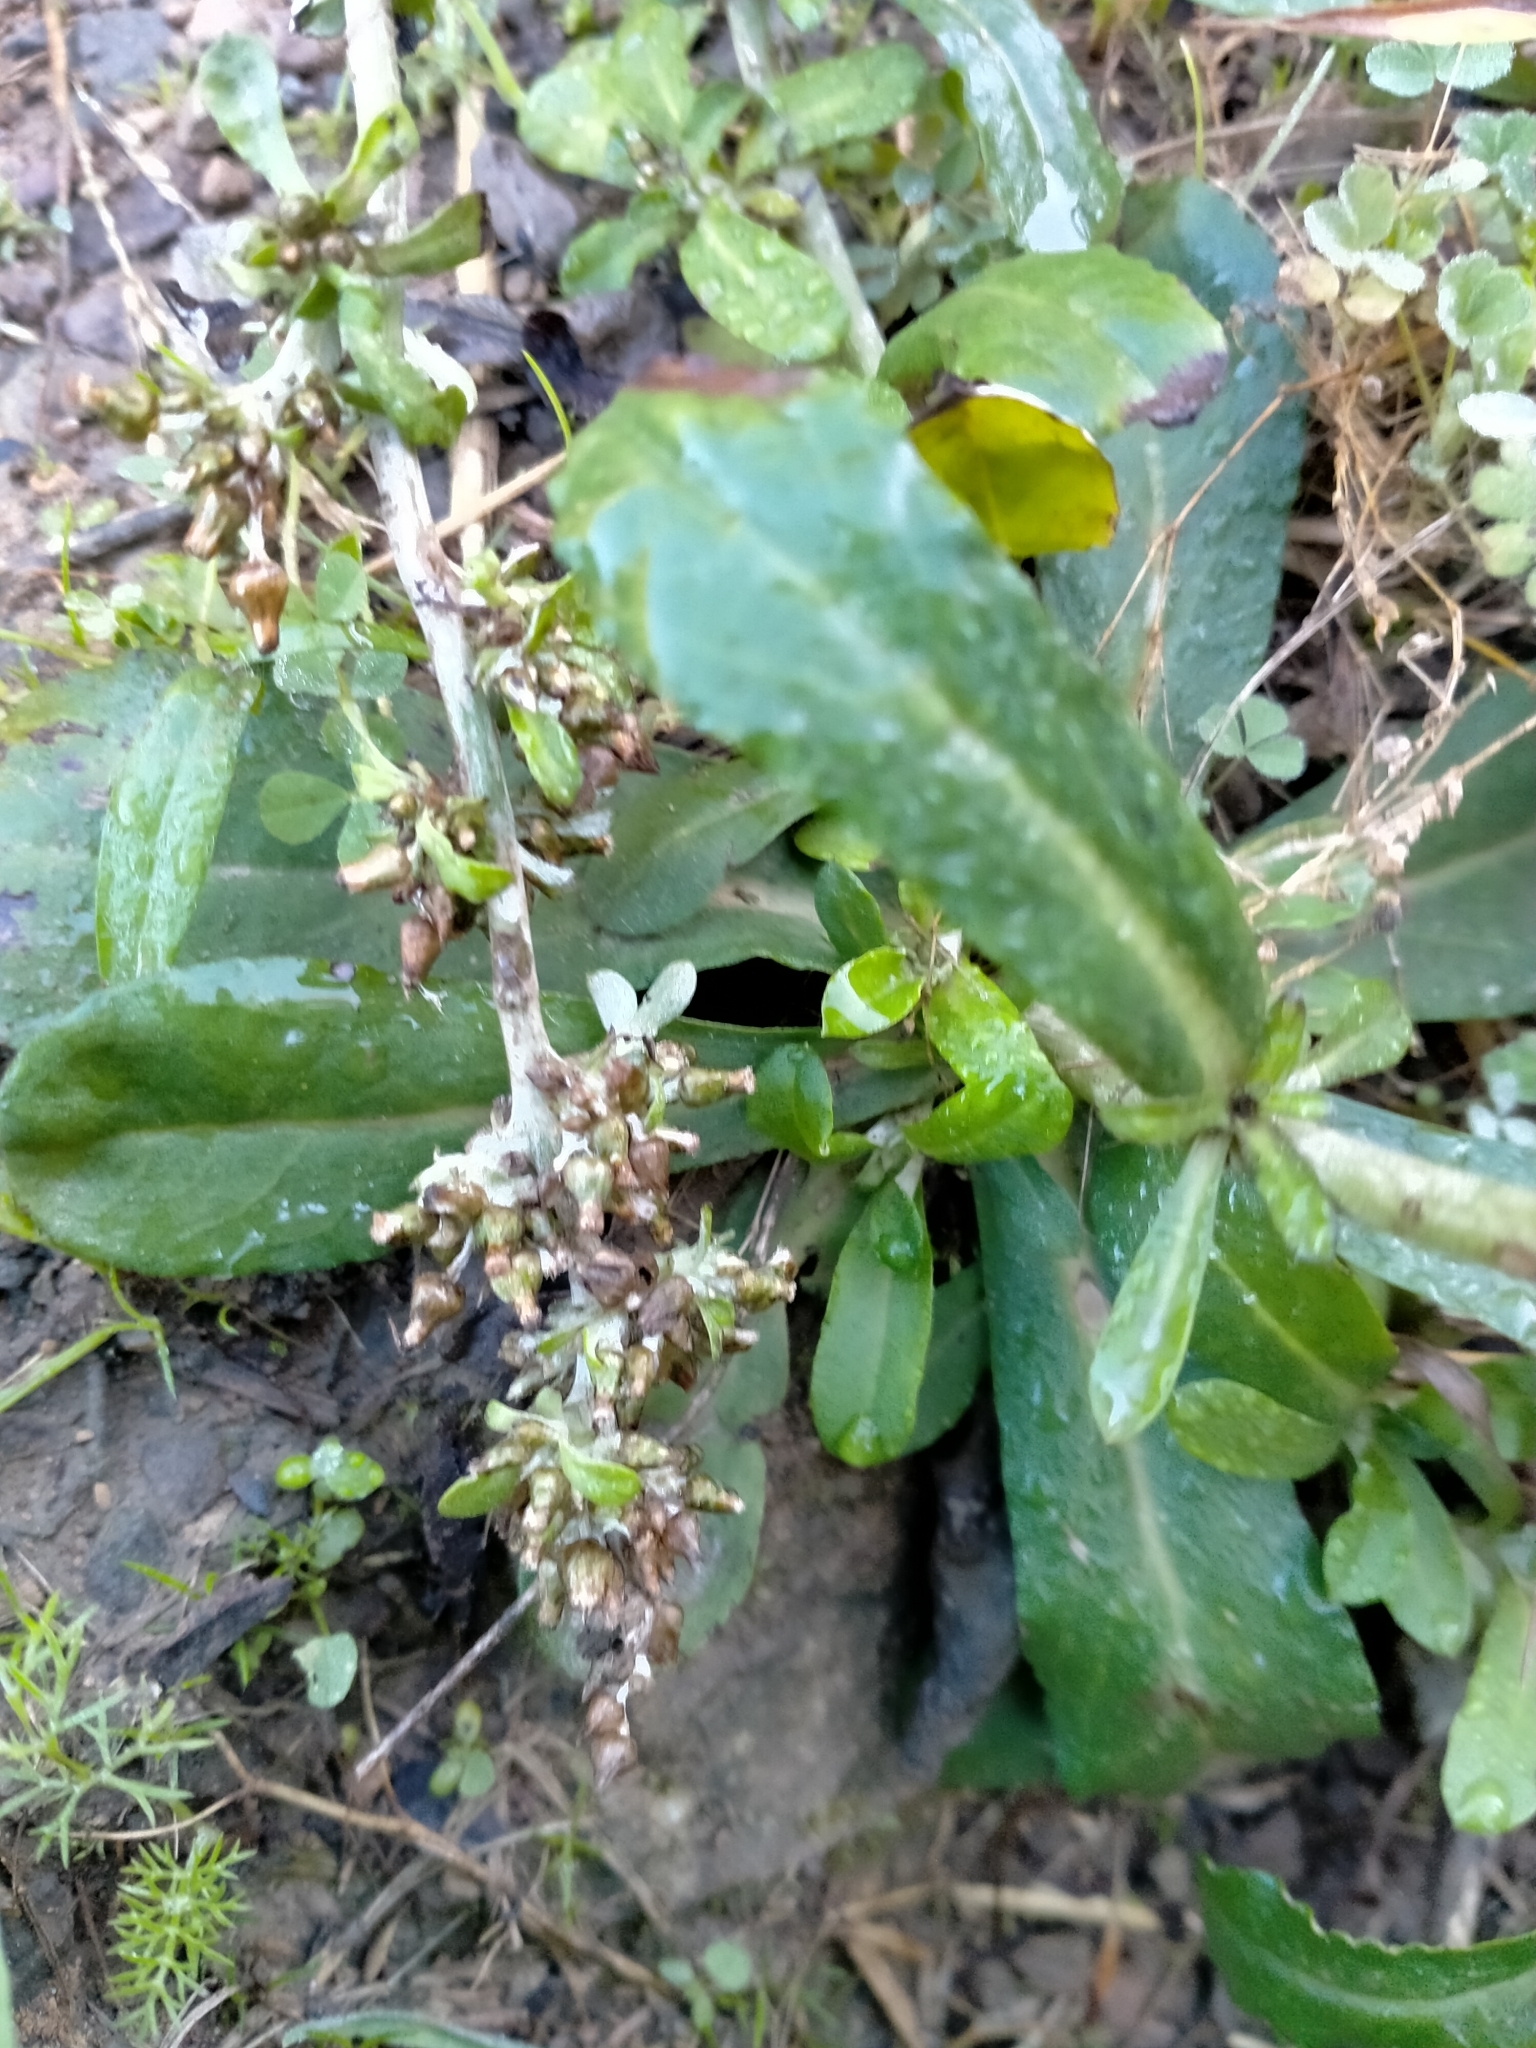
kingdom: Plantae
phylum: Tracheophyta
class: Magnoliopsida
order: Asterales
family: Asteraceae
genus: Gamochaeta
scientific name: Gamochaeta americana
